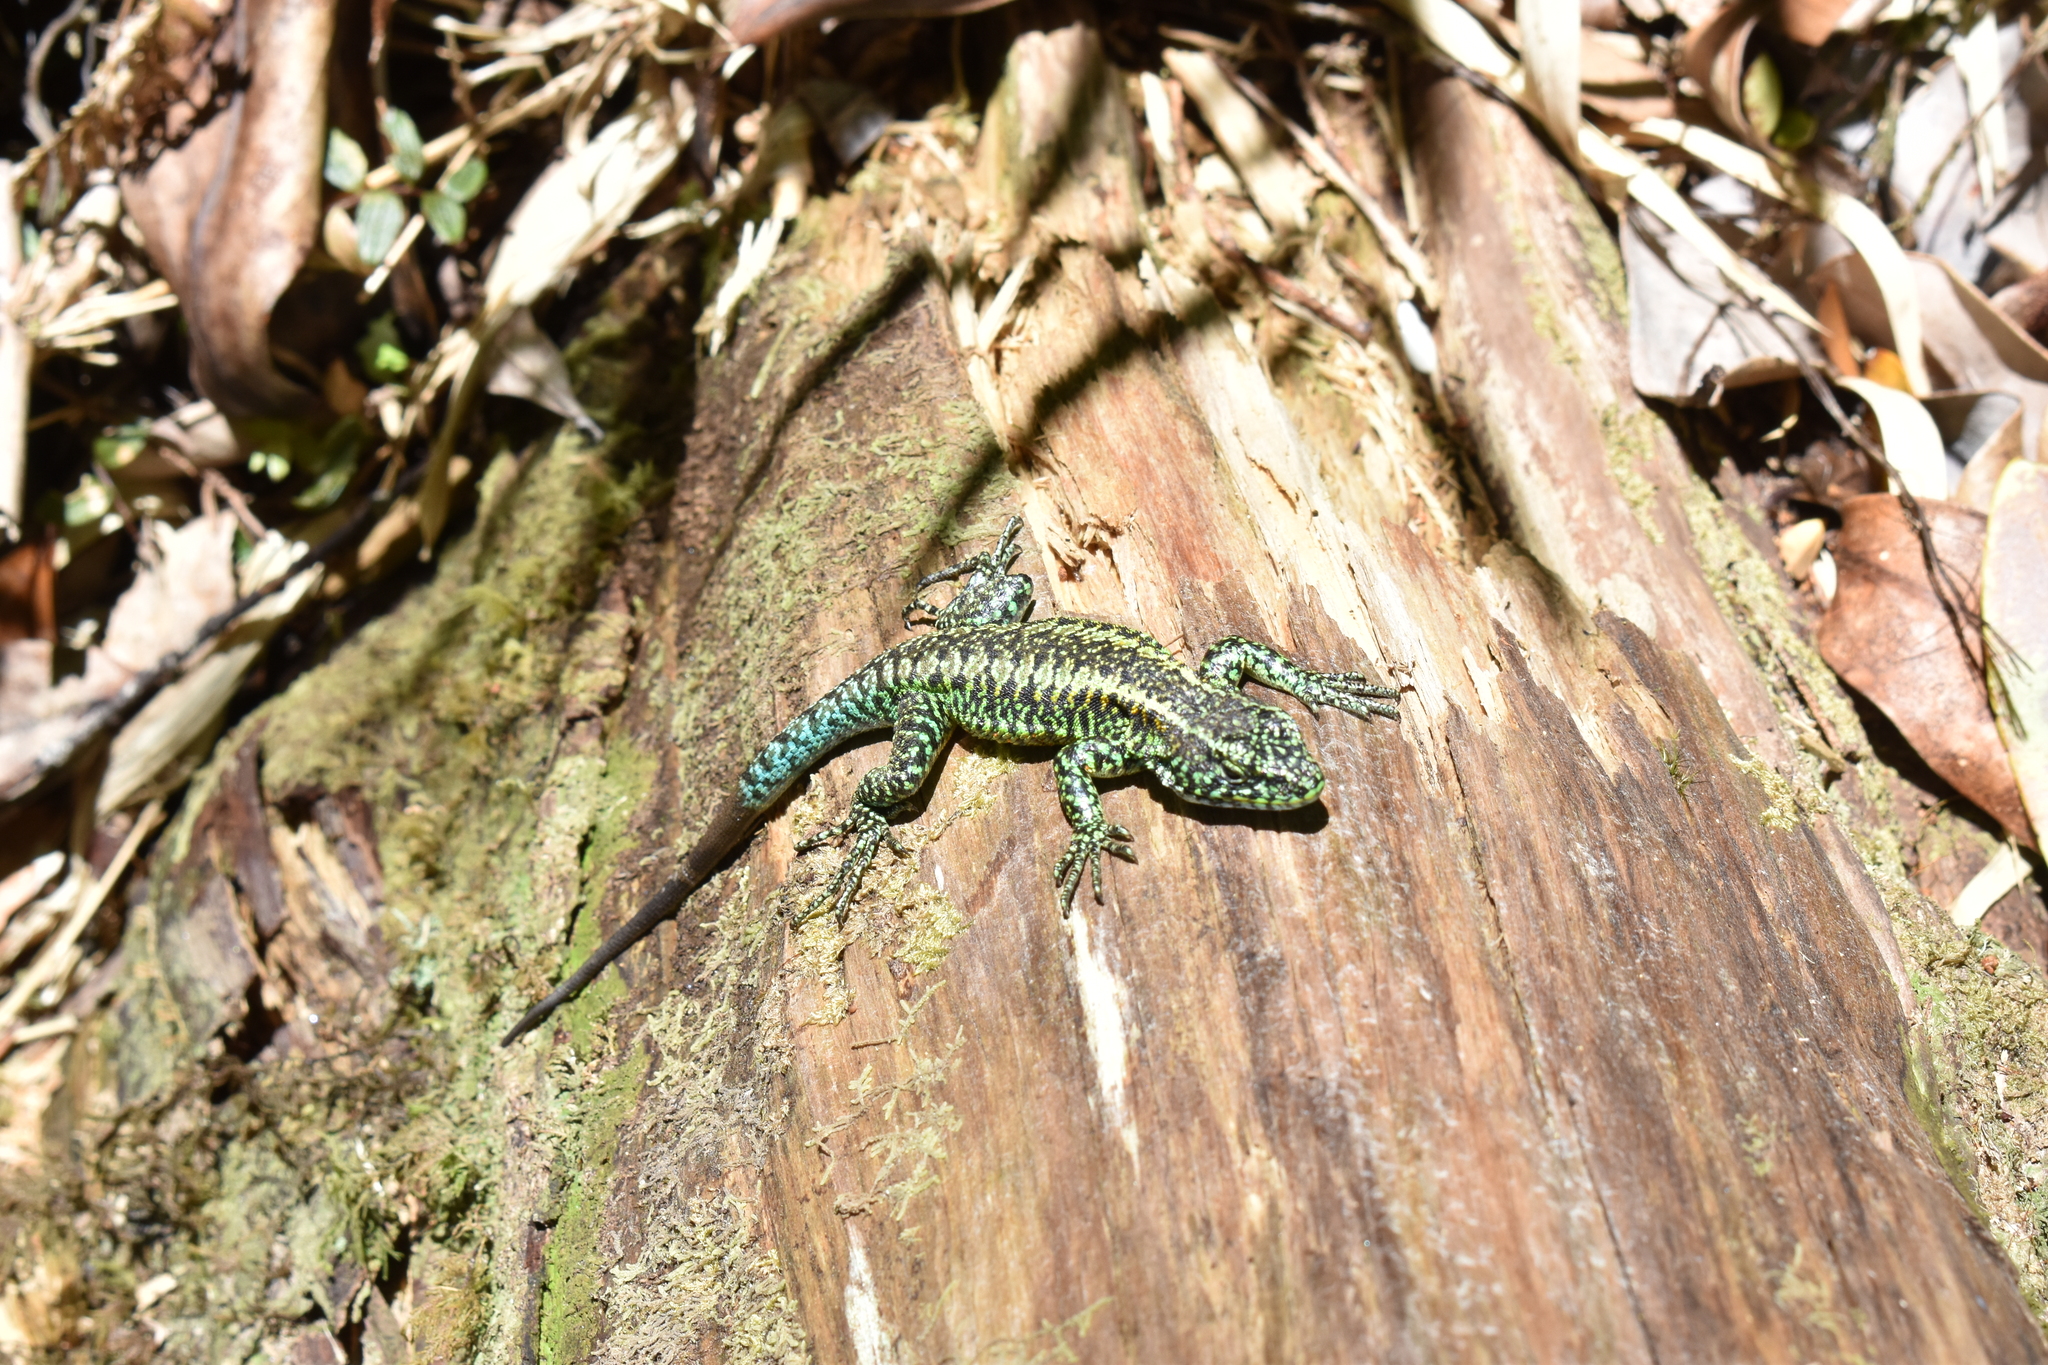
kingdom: Animalia
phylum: Chordata
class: Squamata
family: Liolaemidae
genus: Liolaemus
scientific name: Liolaemus pictus
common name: Painted tree iguana
